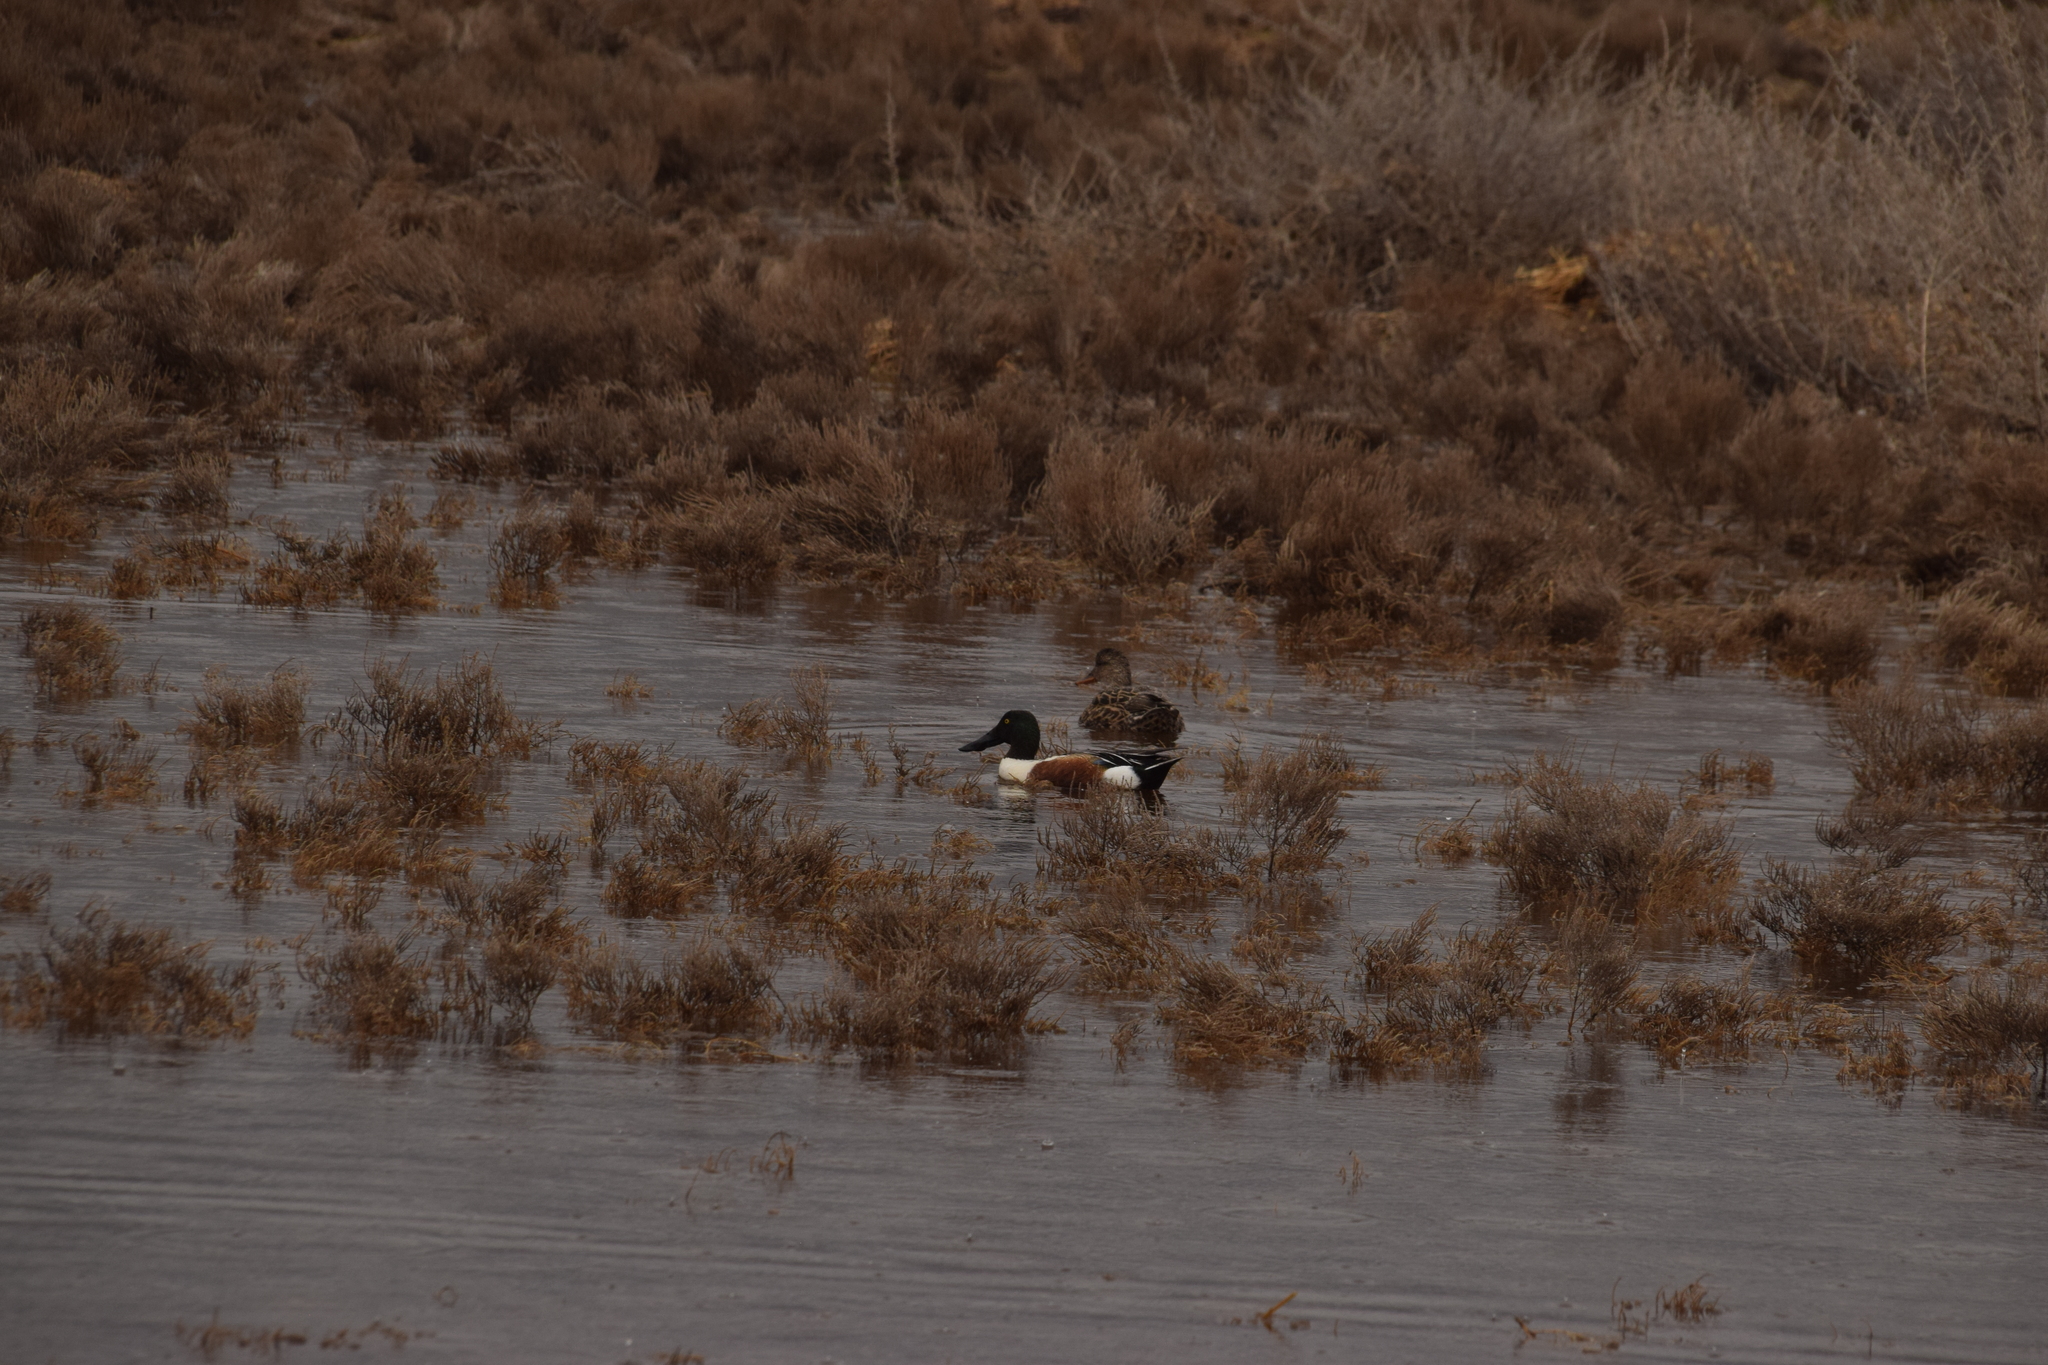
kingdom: Animalia
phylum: Chordata
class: Aves
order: Anseriformes
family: Anatidae
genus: Spatula
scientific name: Spatula clypeata
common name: Northern shoveler
